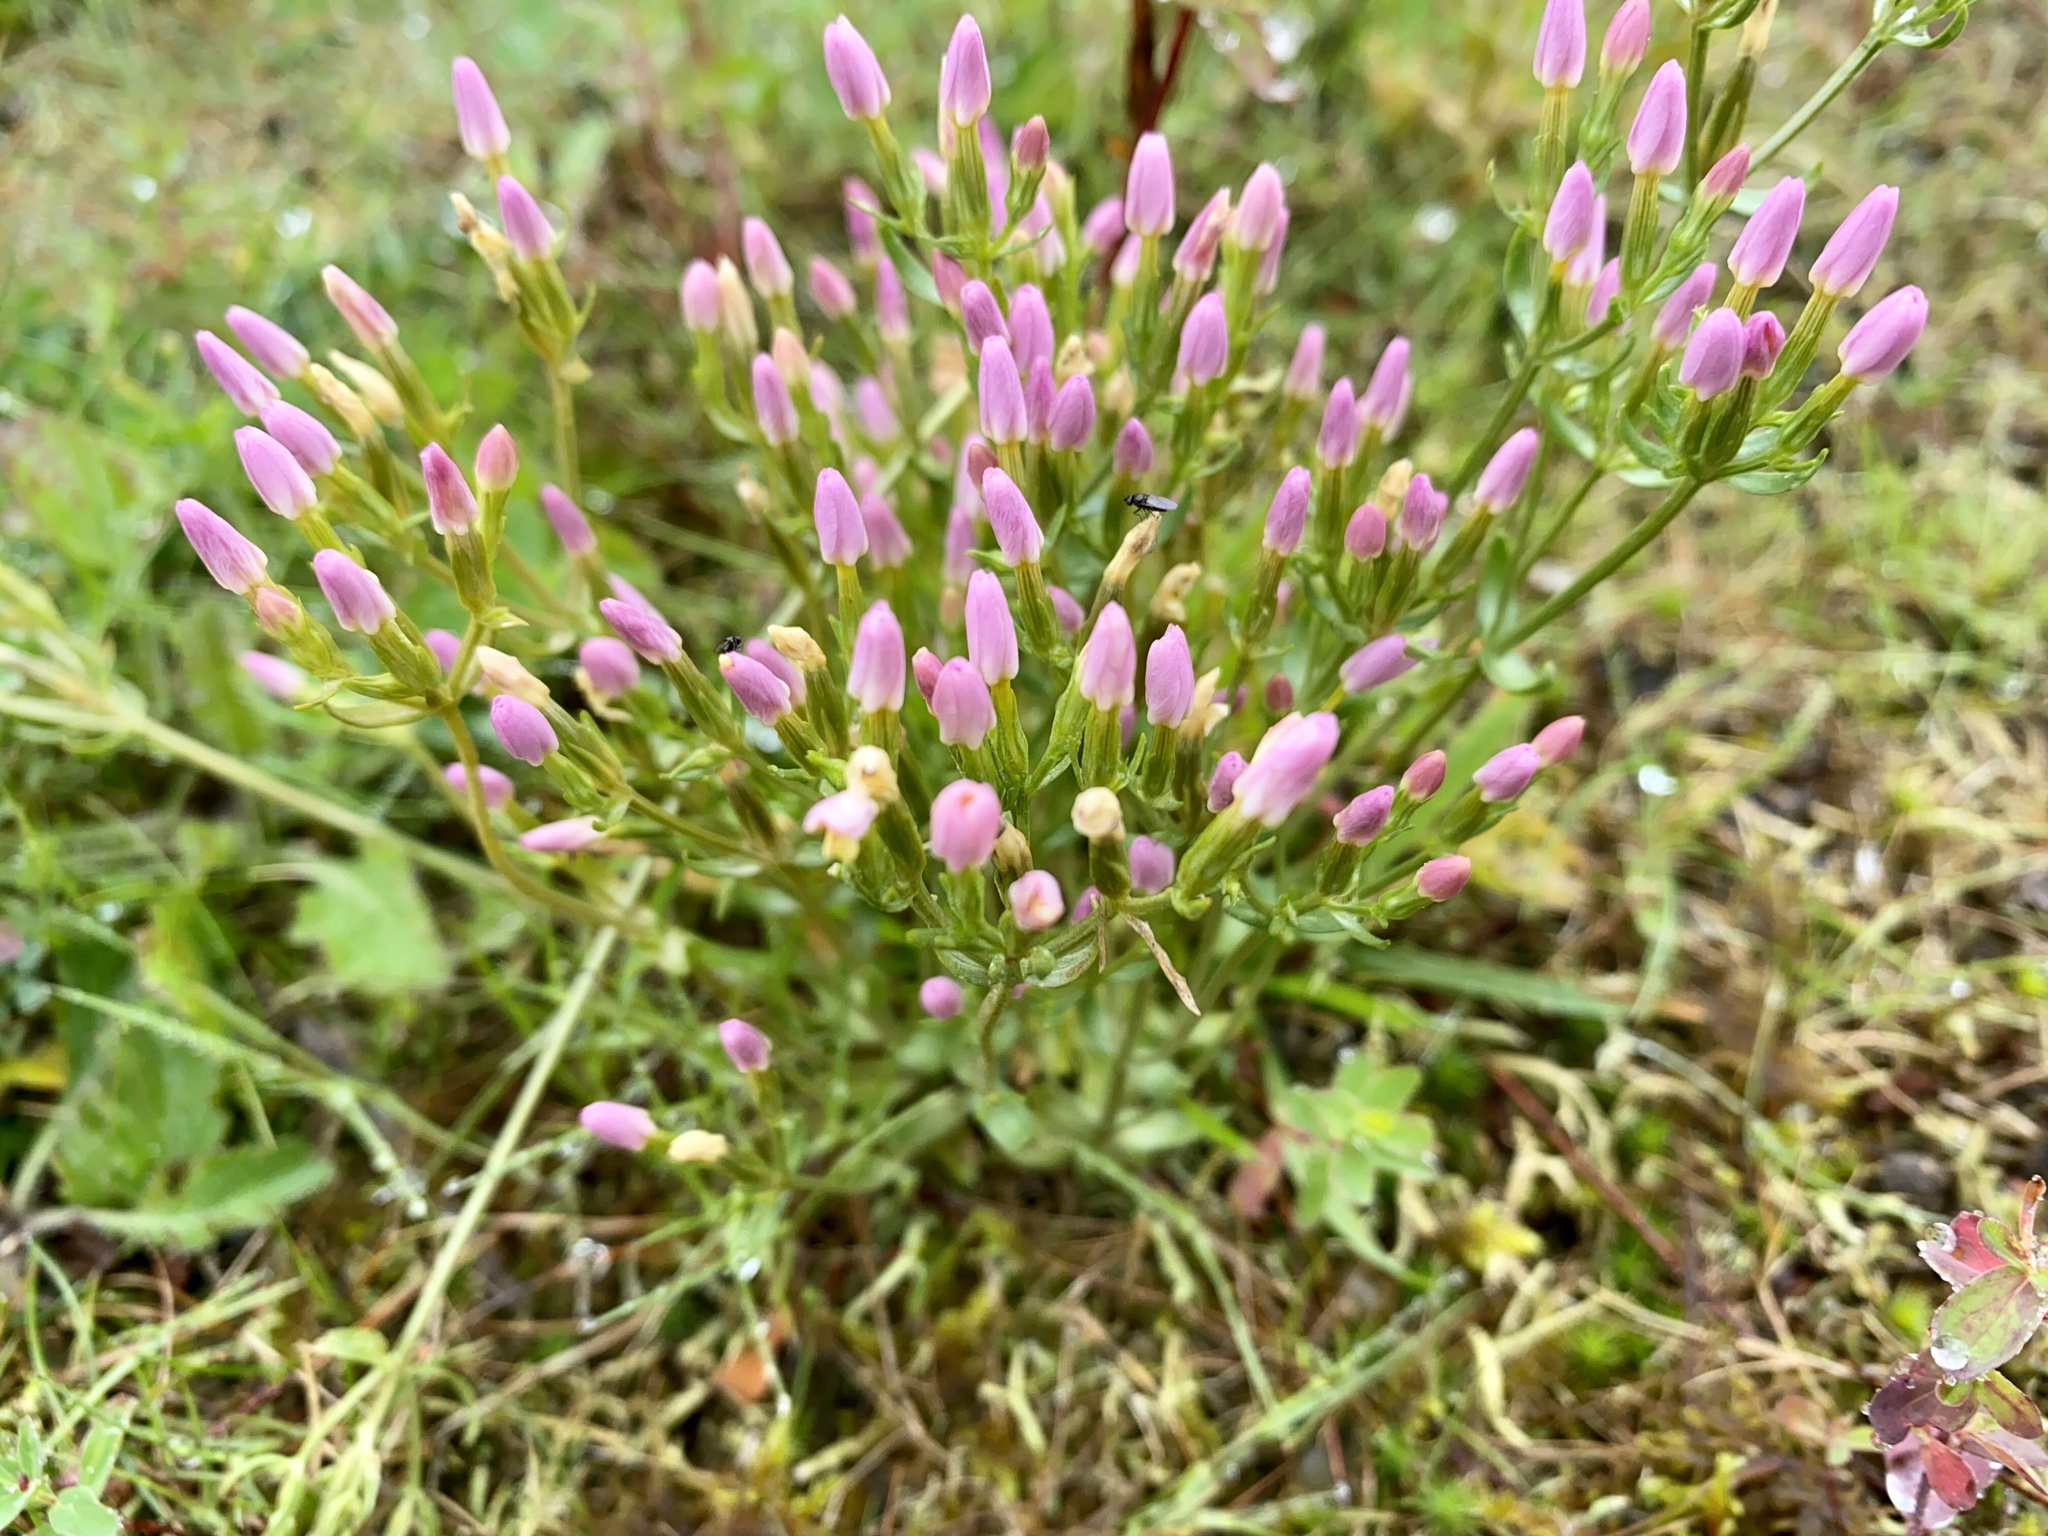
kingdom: Plantae
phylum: Tracheophyta
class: Magnoliopsida
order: Gentianales
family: Gentianaceae
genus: Centaurium
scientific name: Centaurium erythraea
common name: Common centaury
